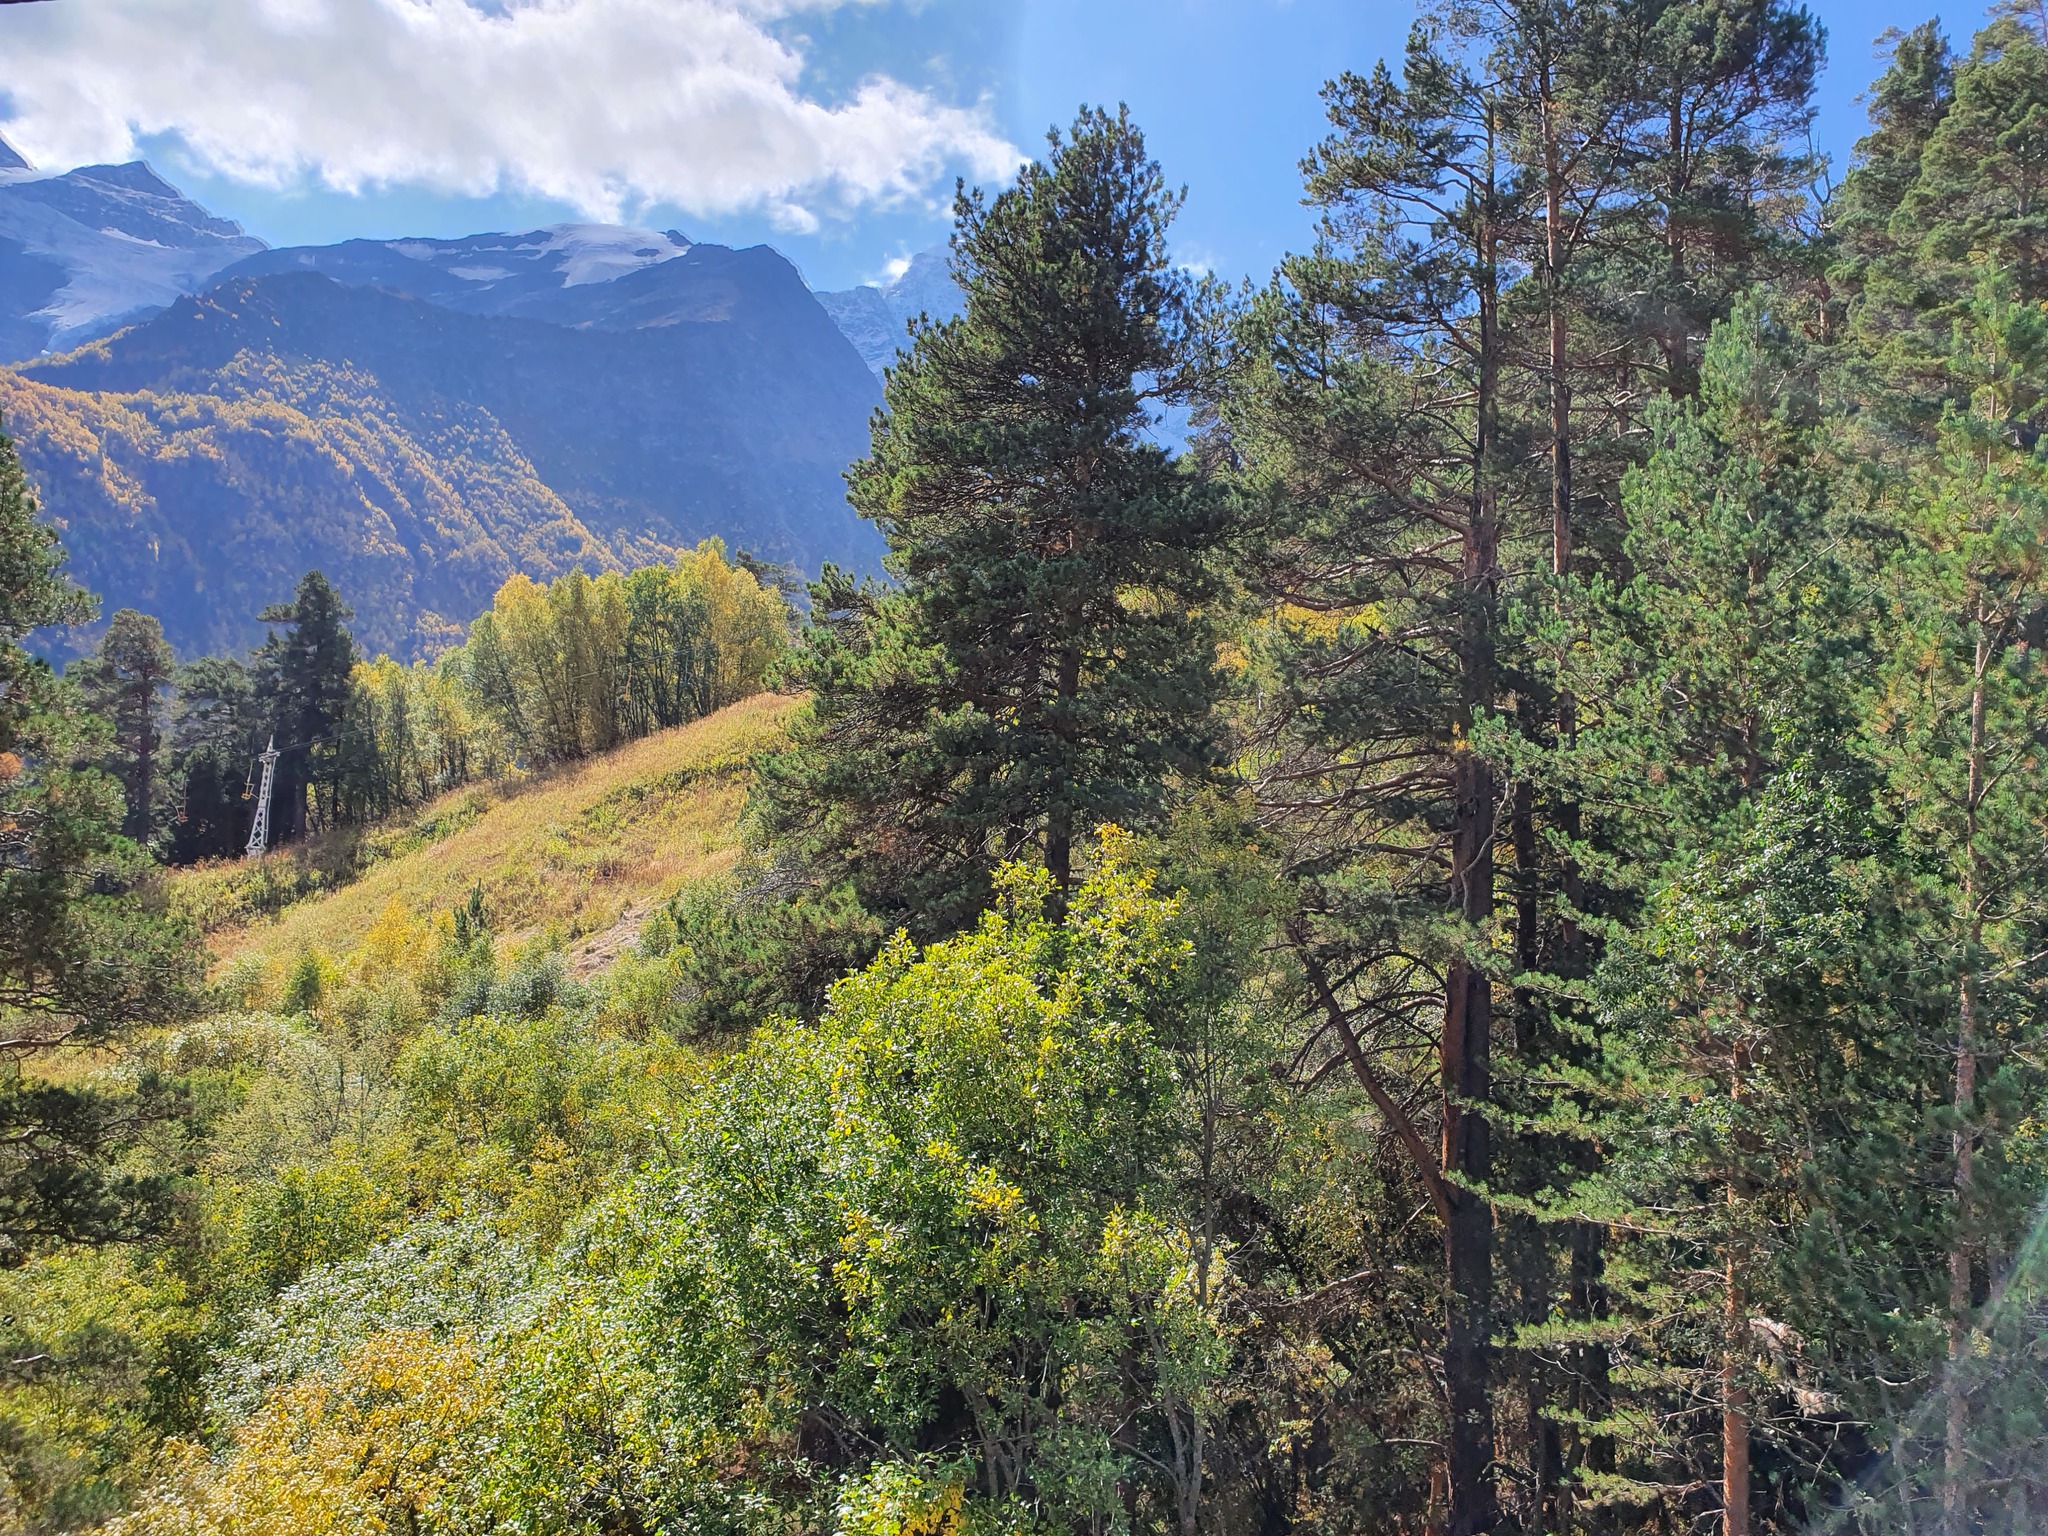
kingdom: Plantae
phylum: Tracheophyta
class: Pinopsida
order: Pinales
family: Pinaceae
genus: Pinus
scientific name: Pinus sylvestris
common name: Scots pine
